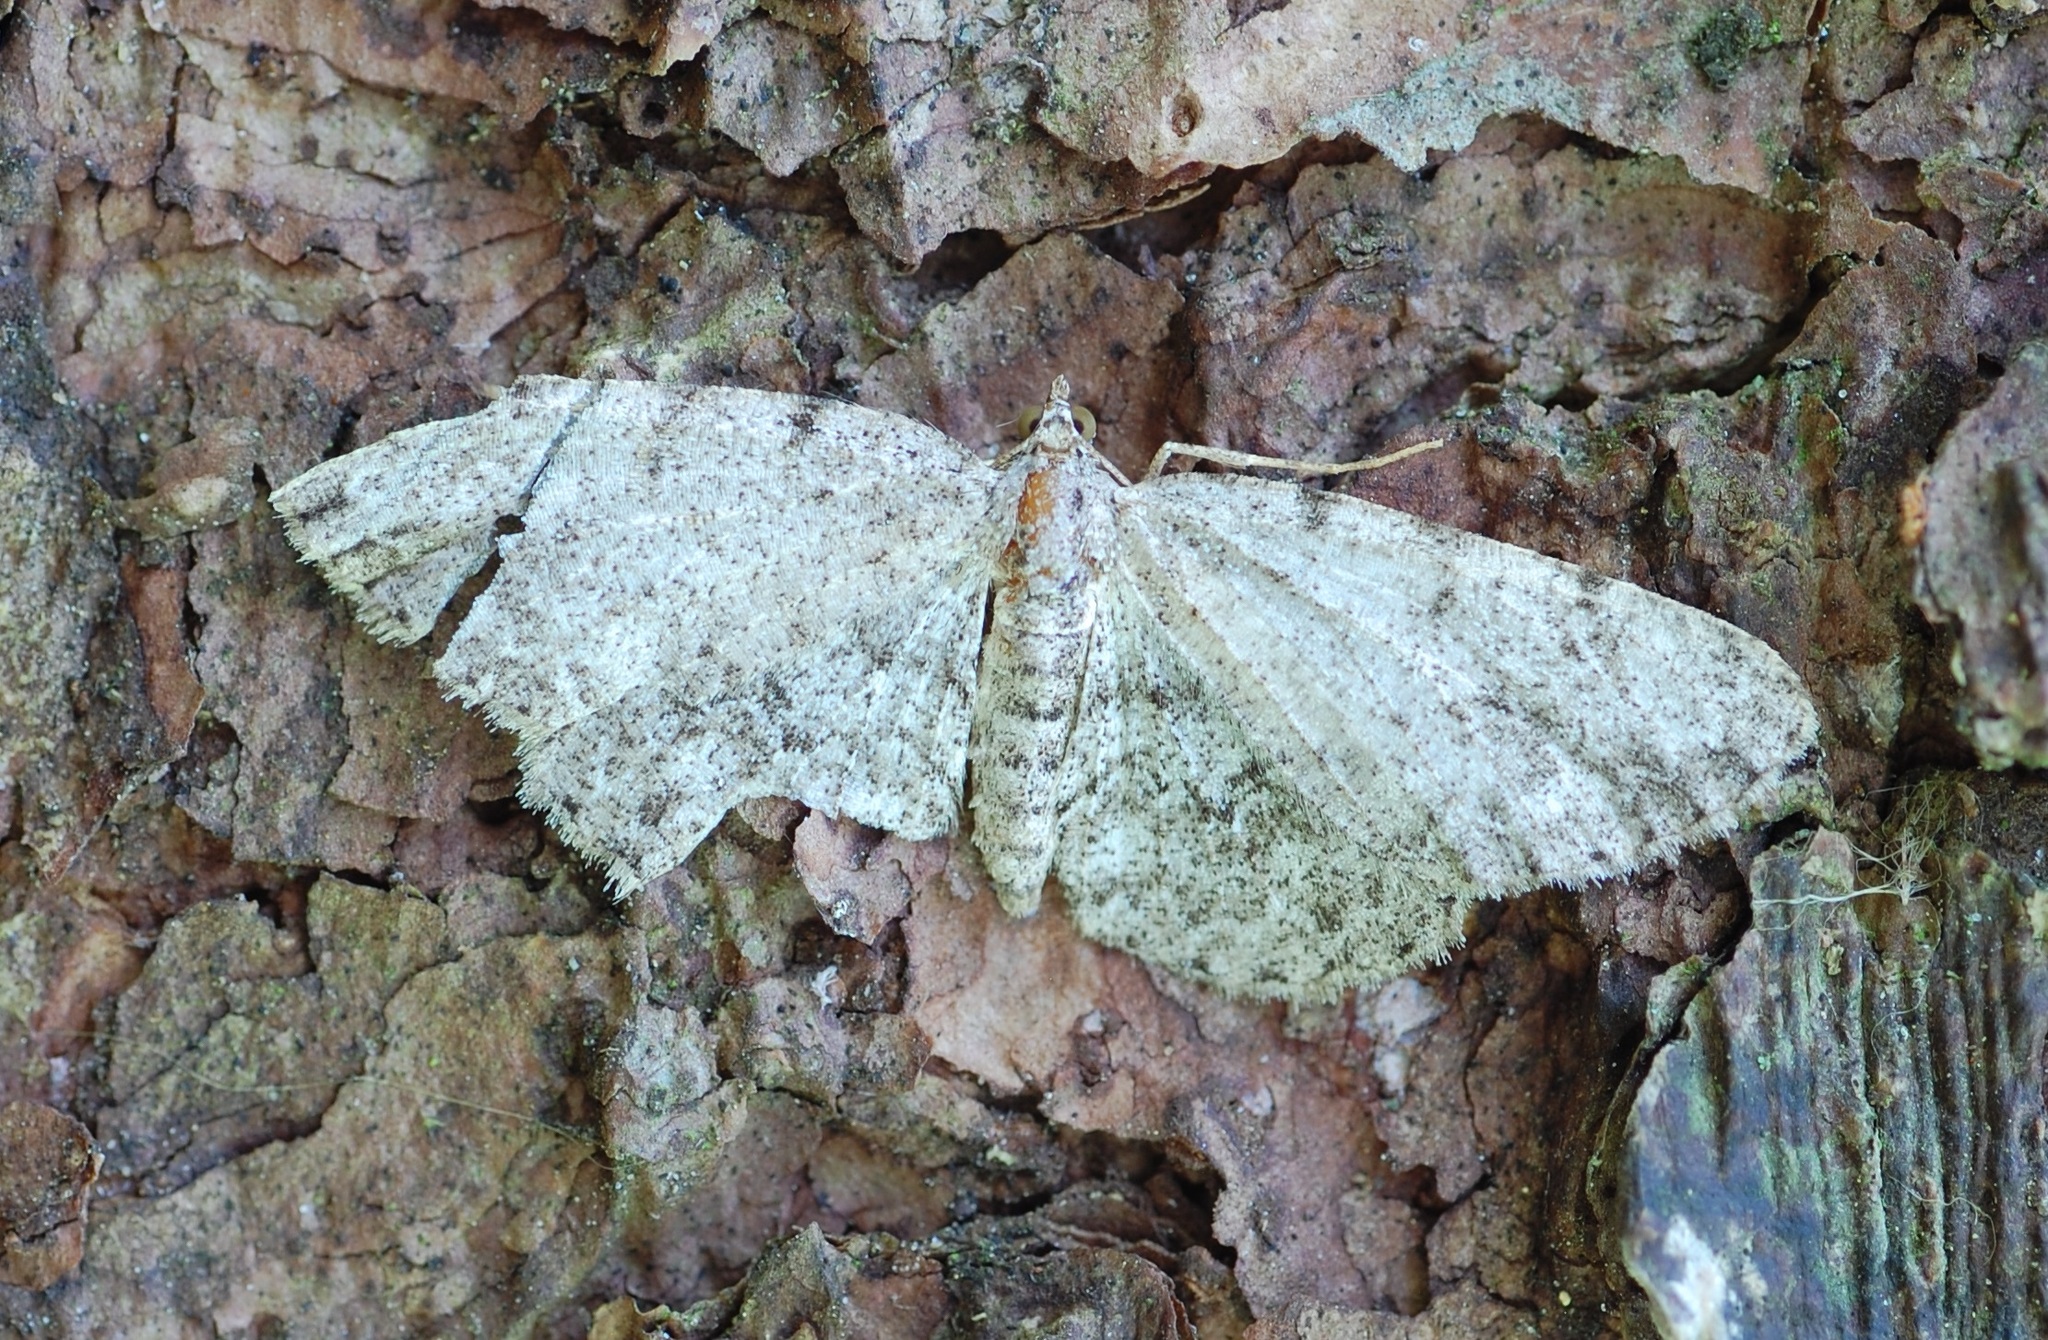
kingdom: Animalia
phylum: Arthropoda
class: Insecta
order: Lepidoptera
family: Geometridae
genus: Protoboarmia
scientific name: Protoboarmia porcelaria
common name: Porcelain gray
